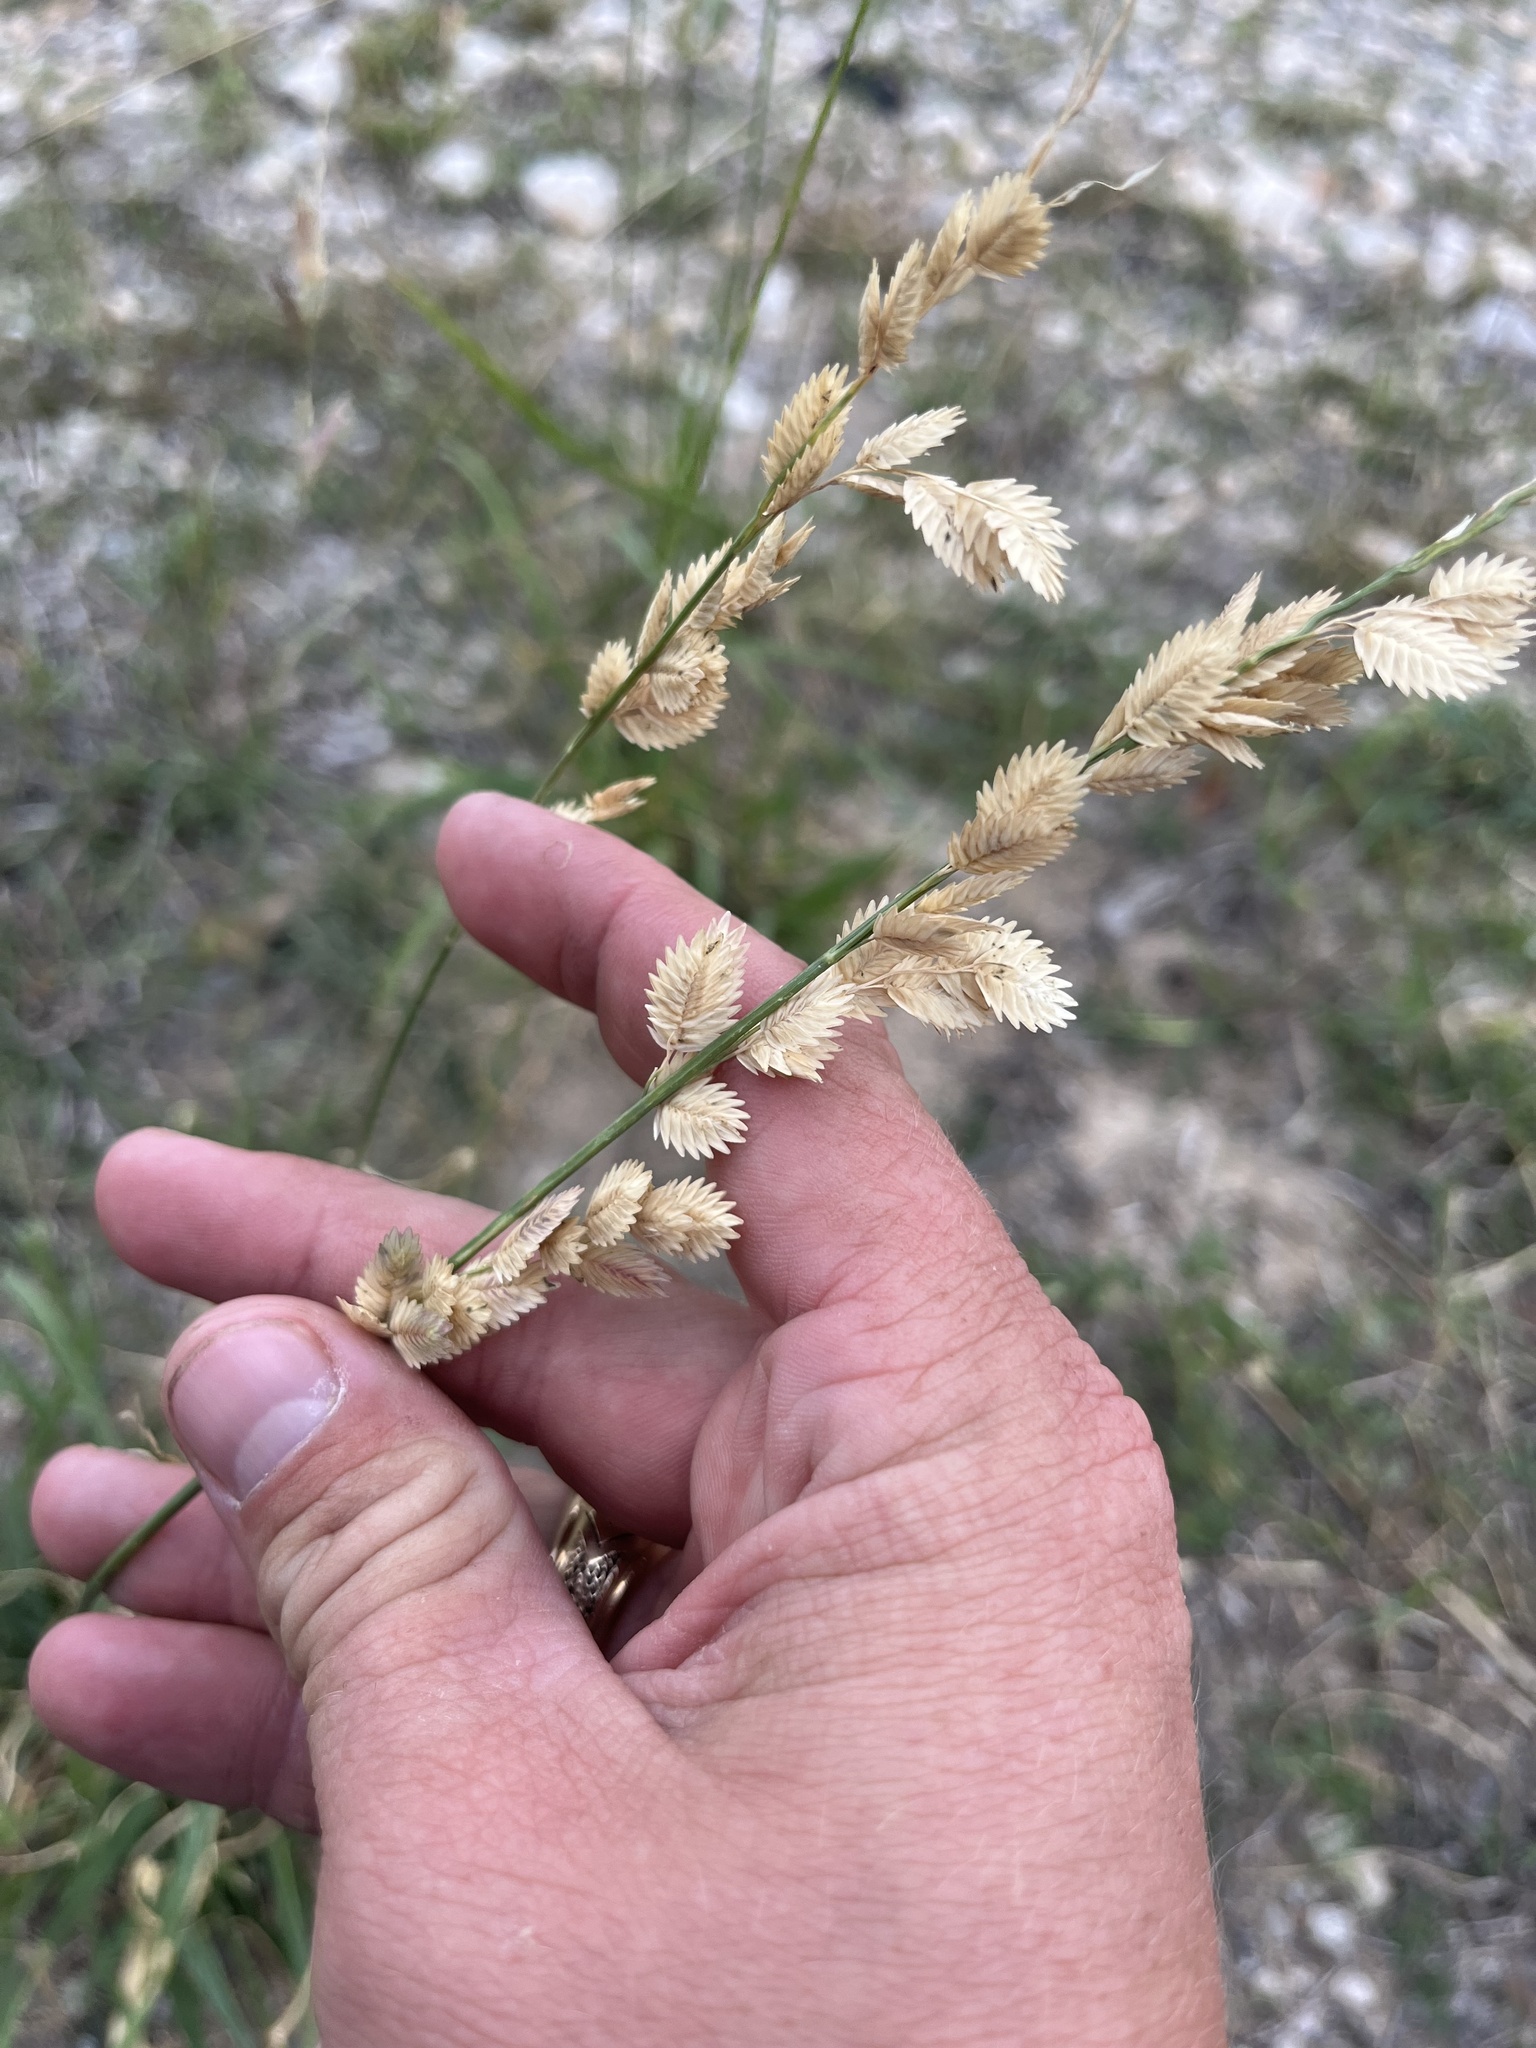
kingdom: Plantae
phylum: Tracheophyta
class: Liliopsida
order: Poales
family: Poaceae
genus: Eragrostis
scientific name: Eragrostis superba
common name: Wilman lovegrass
